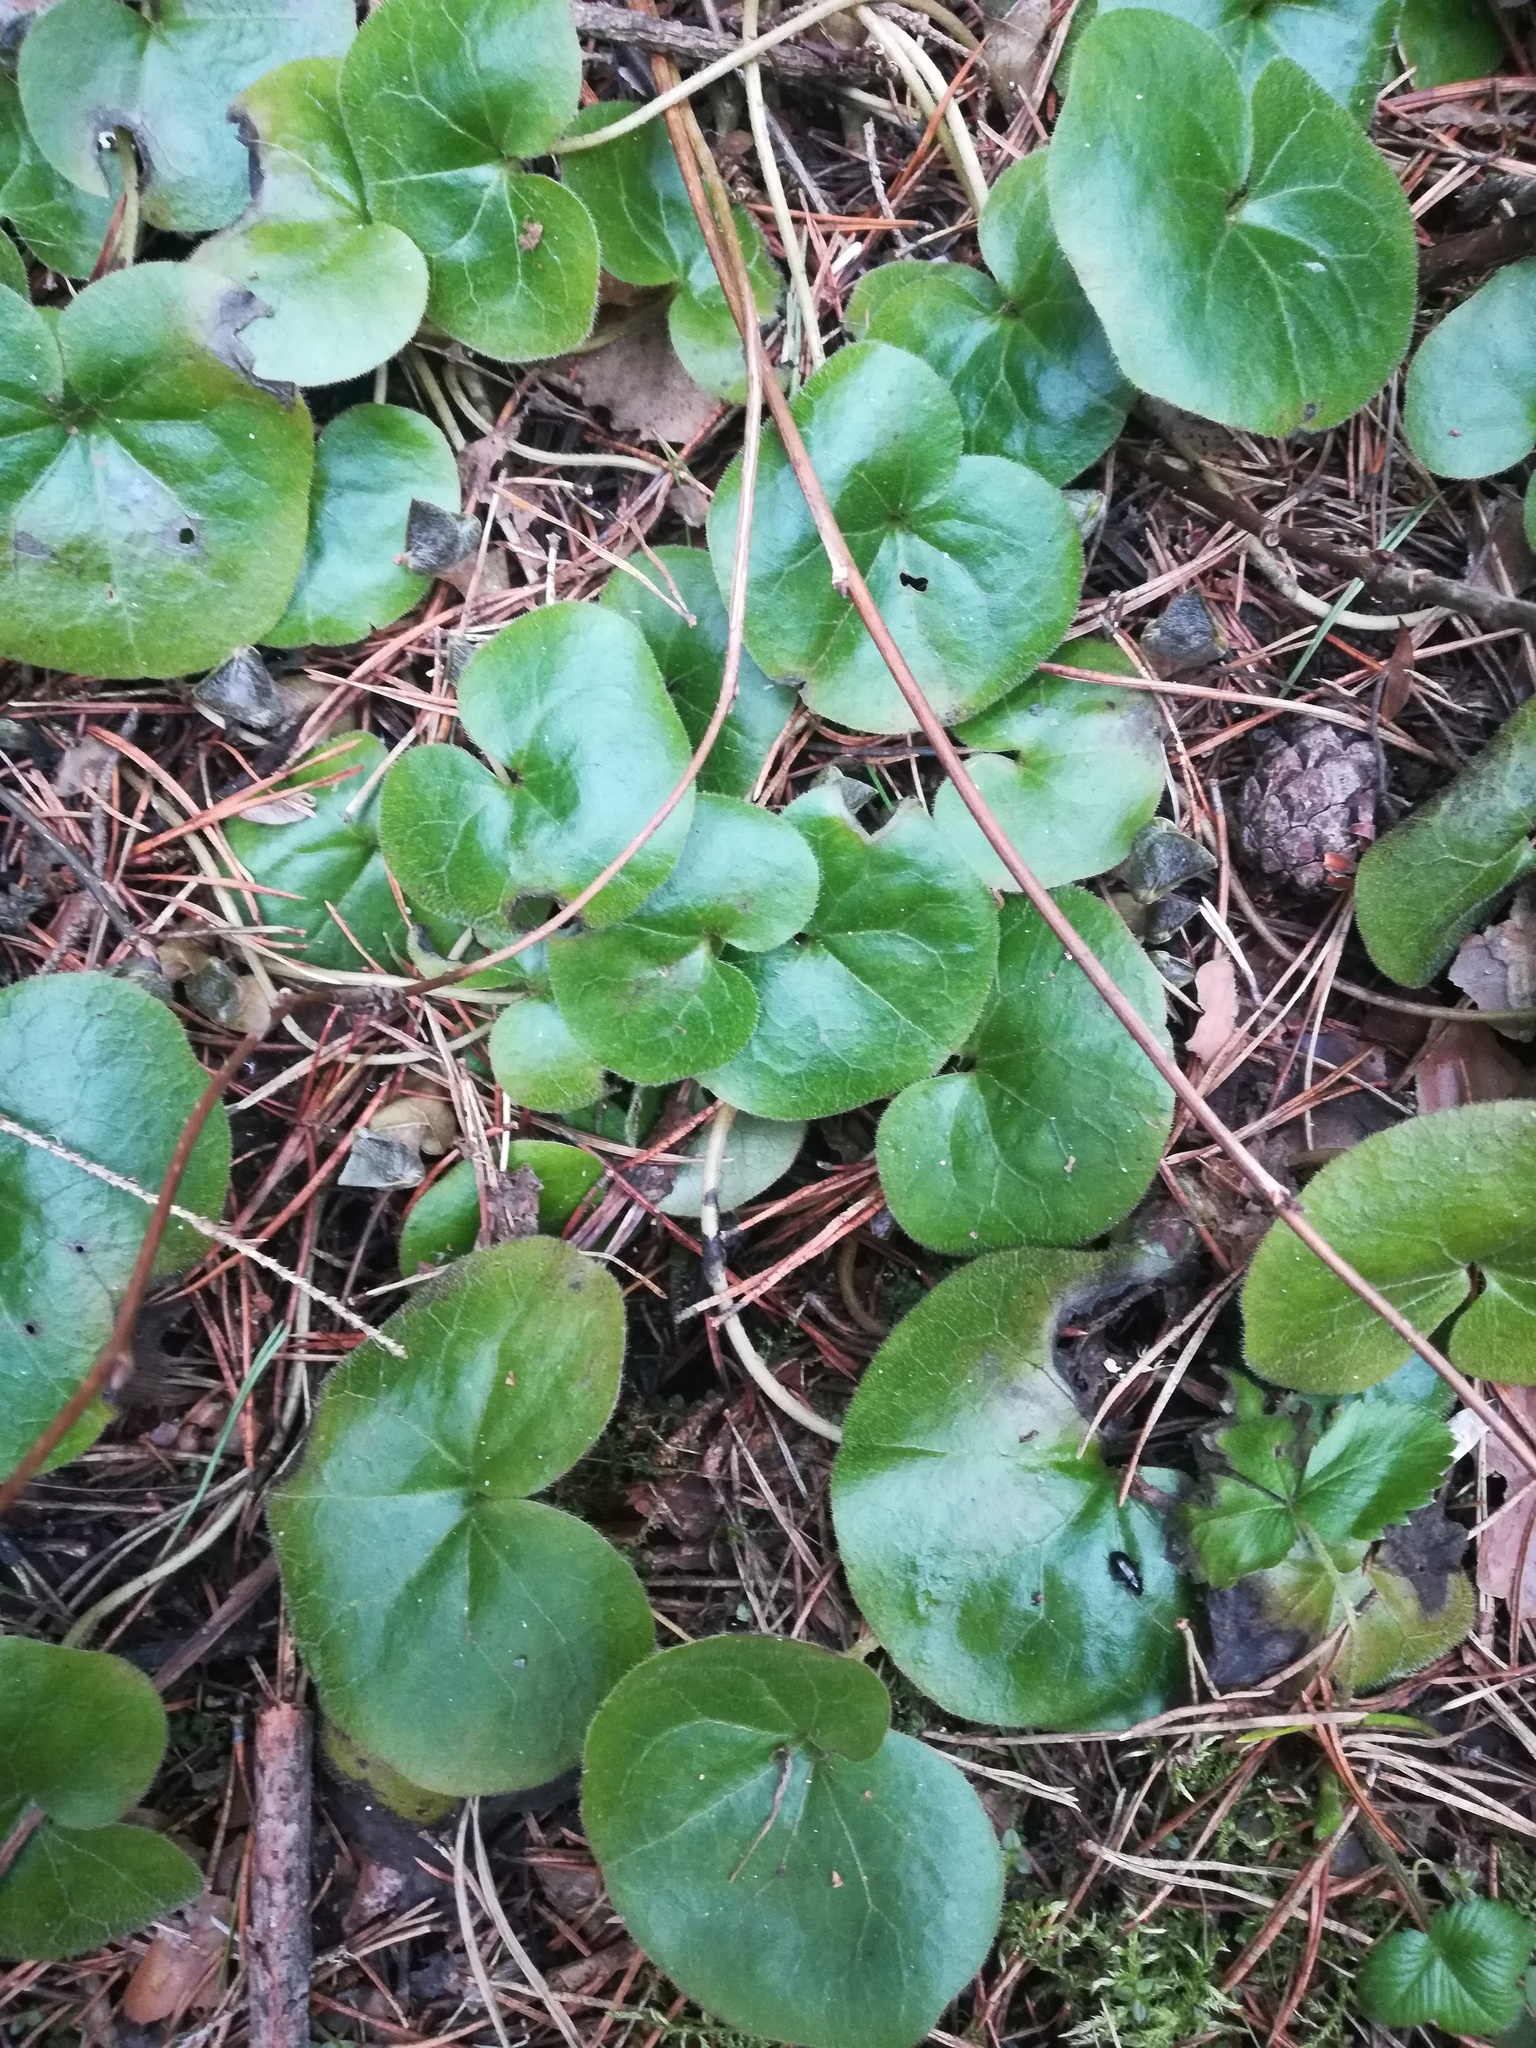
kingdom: Plantae
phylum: Tracheophyta
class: Magnoliopsida
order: Piperales
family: Aristolochiaceae
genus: Asarum
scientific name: Asarum europaeum
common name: Asarabacca
